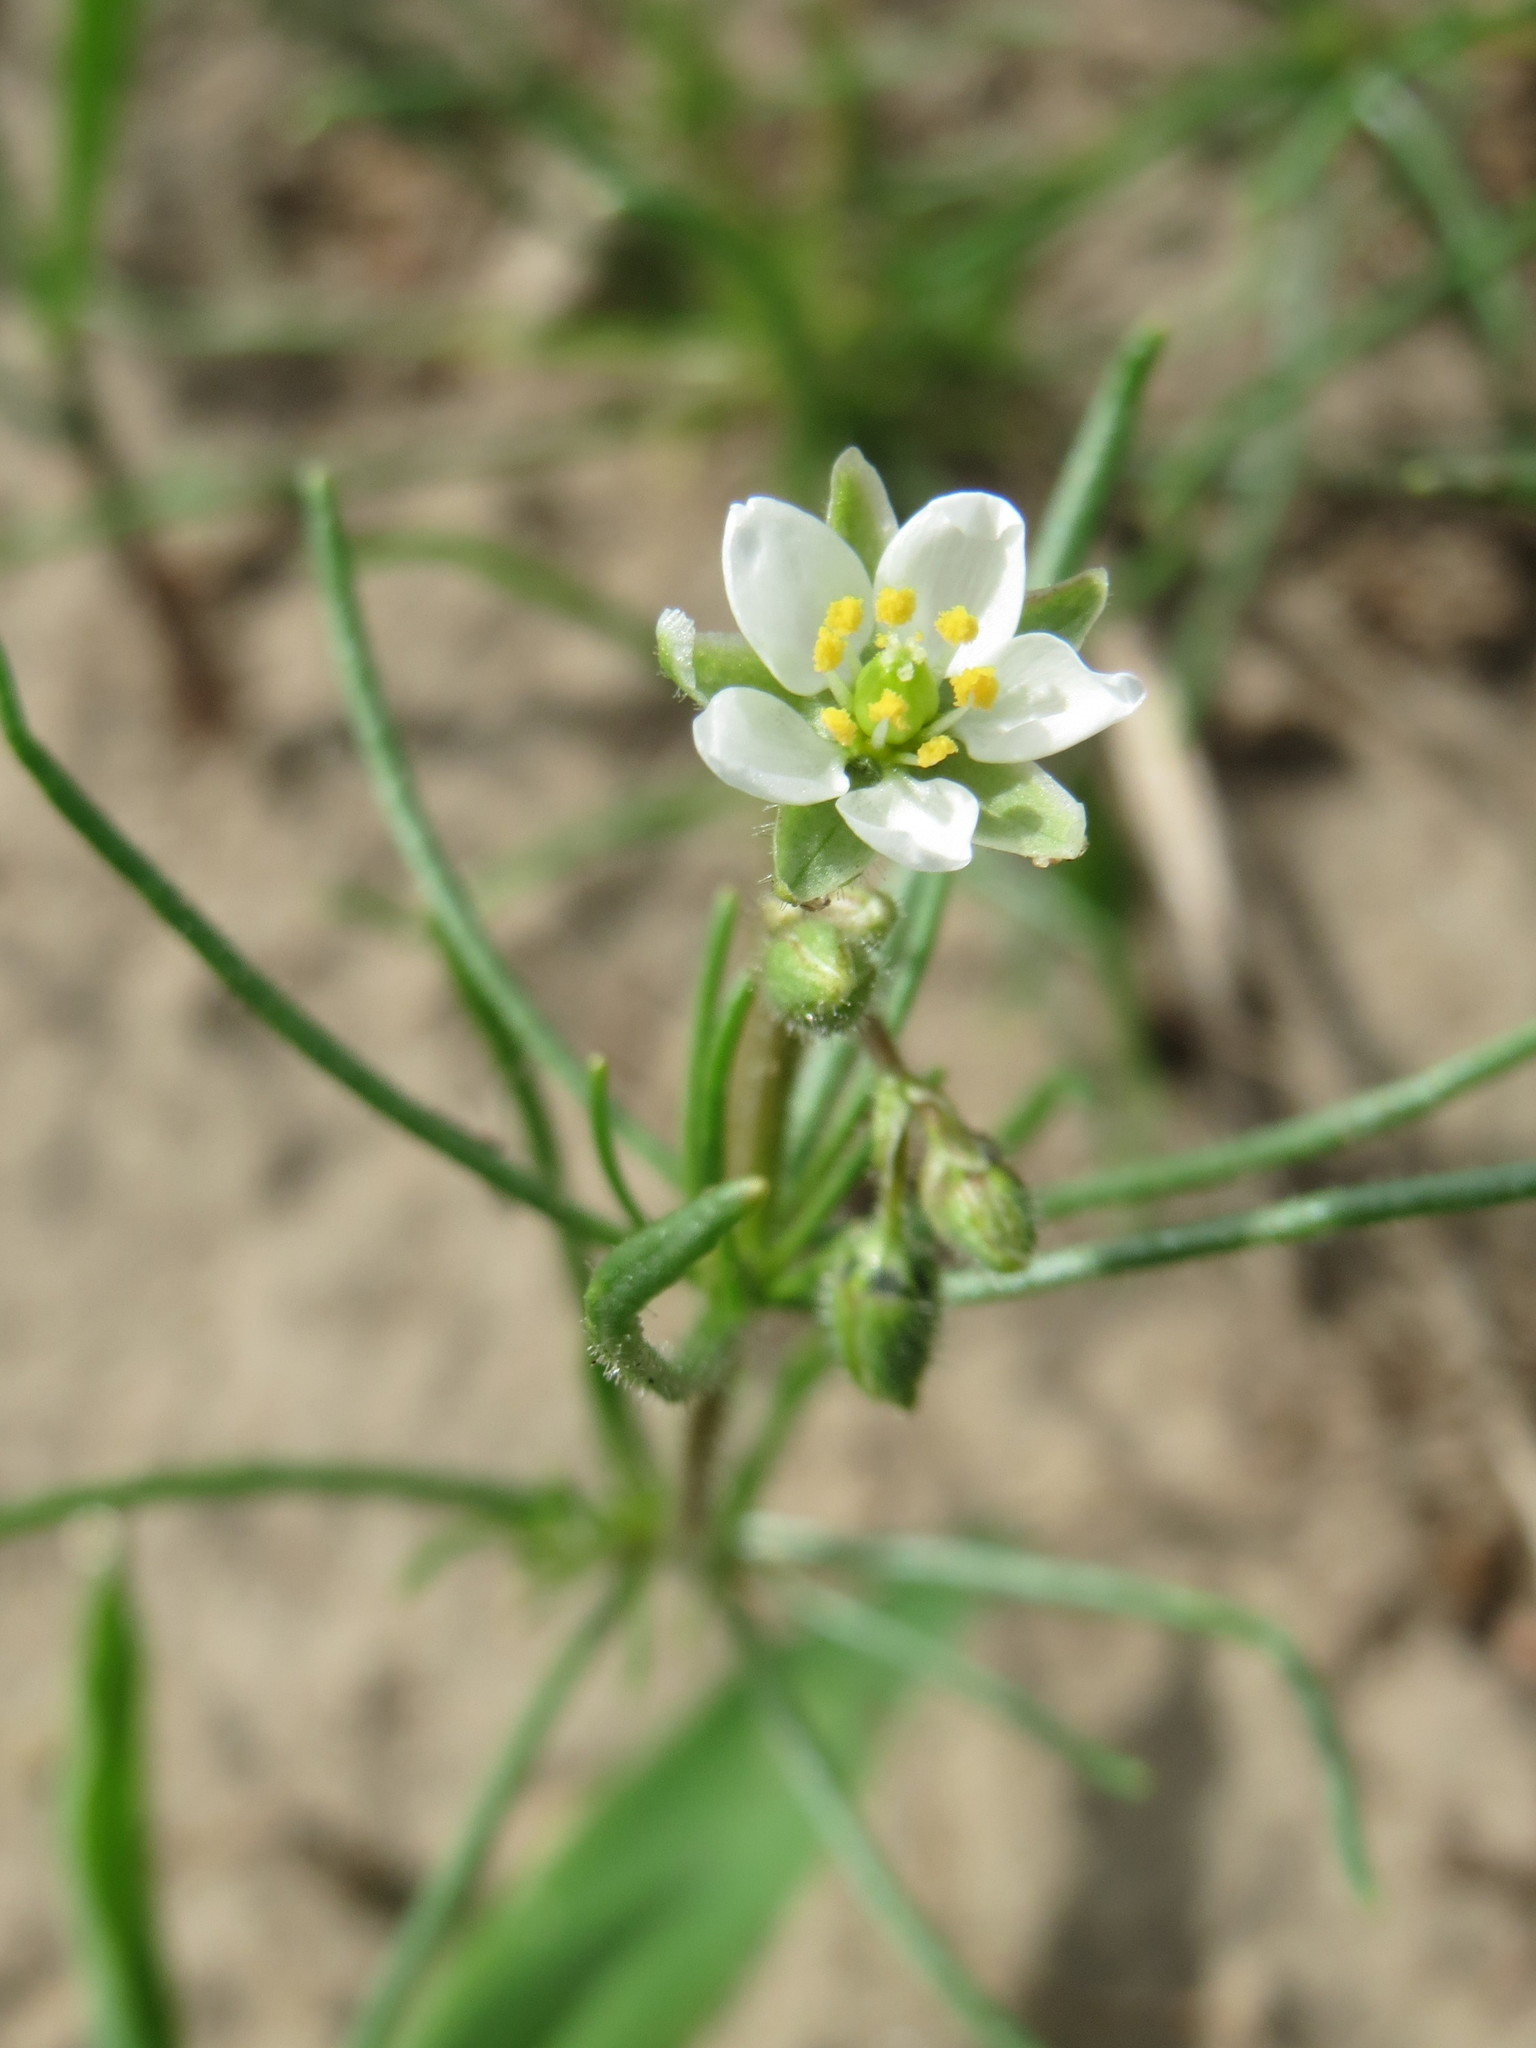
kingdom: Plantae
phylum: Tracheophyta
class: Magnoliopsida
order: Caryophyllales
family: Caryophyllaceae
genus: Spergula
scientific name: Spergula arvensis
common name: Corn spurrey
